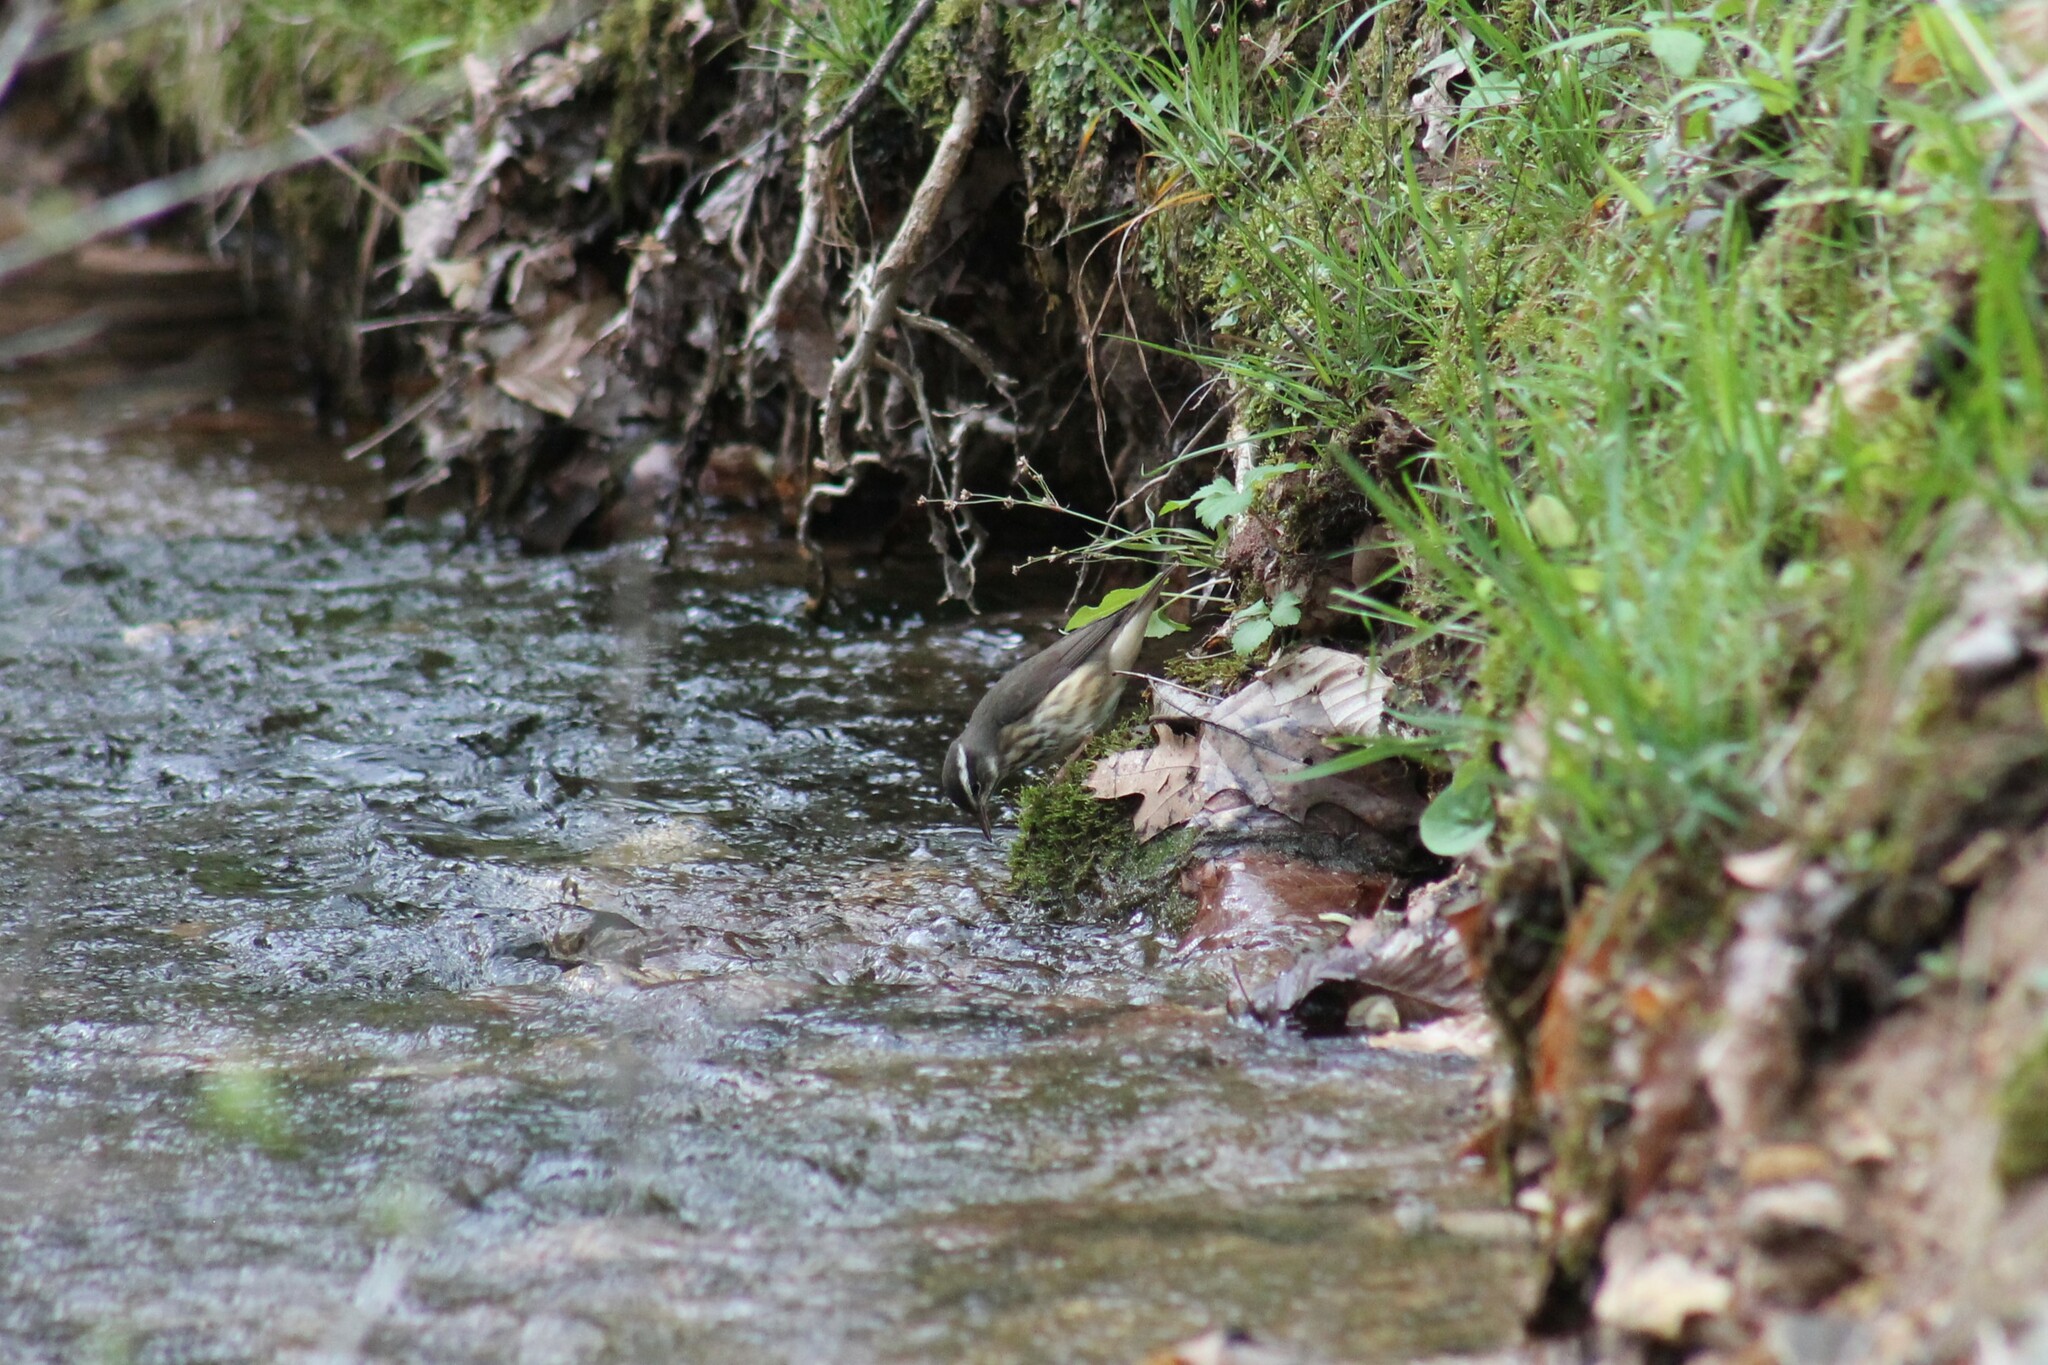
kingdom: Animalia
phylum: Chordata
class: Aves
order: Passeriformes
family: Parulidae
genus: Parkesia
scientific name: Parkesia motacilla
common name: Louisiana waterthrush
